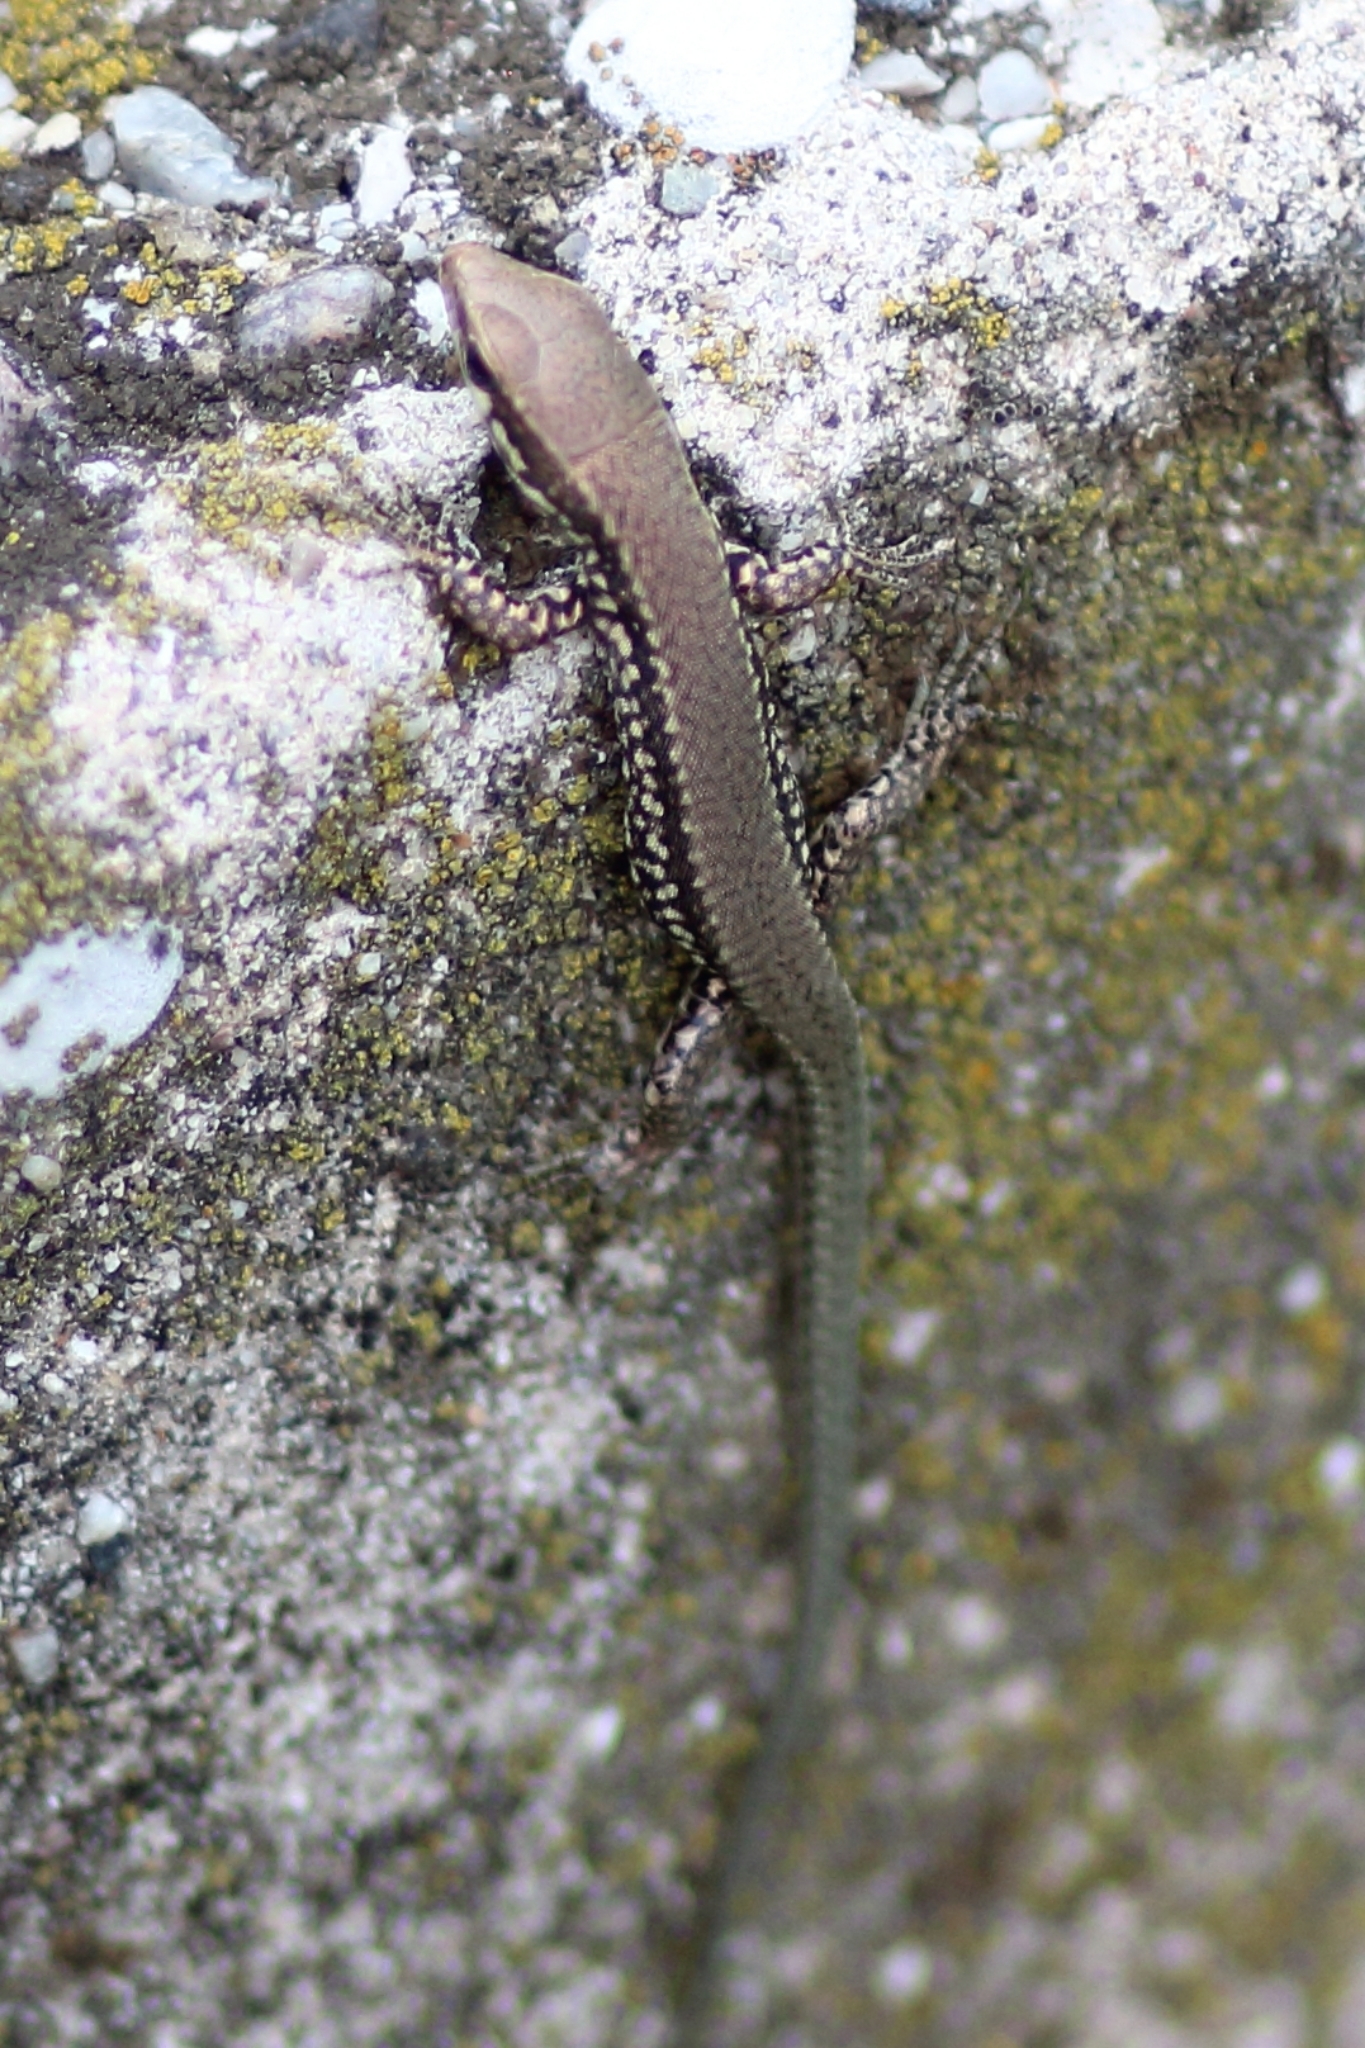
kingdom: Animalia
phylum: Chordata
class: Squamata
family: Lacertidae
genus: Podarcis
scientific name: Podarcis muralis
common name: Common wall lizard
